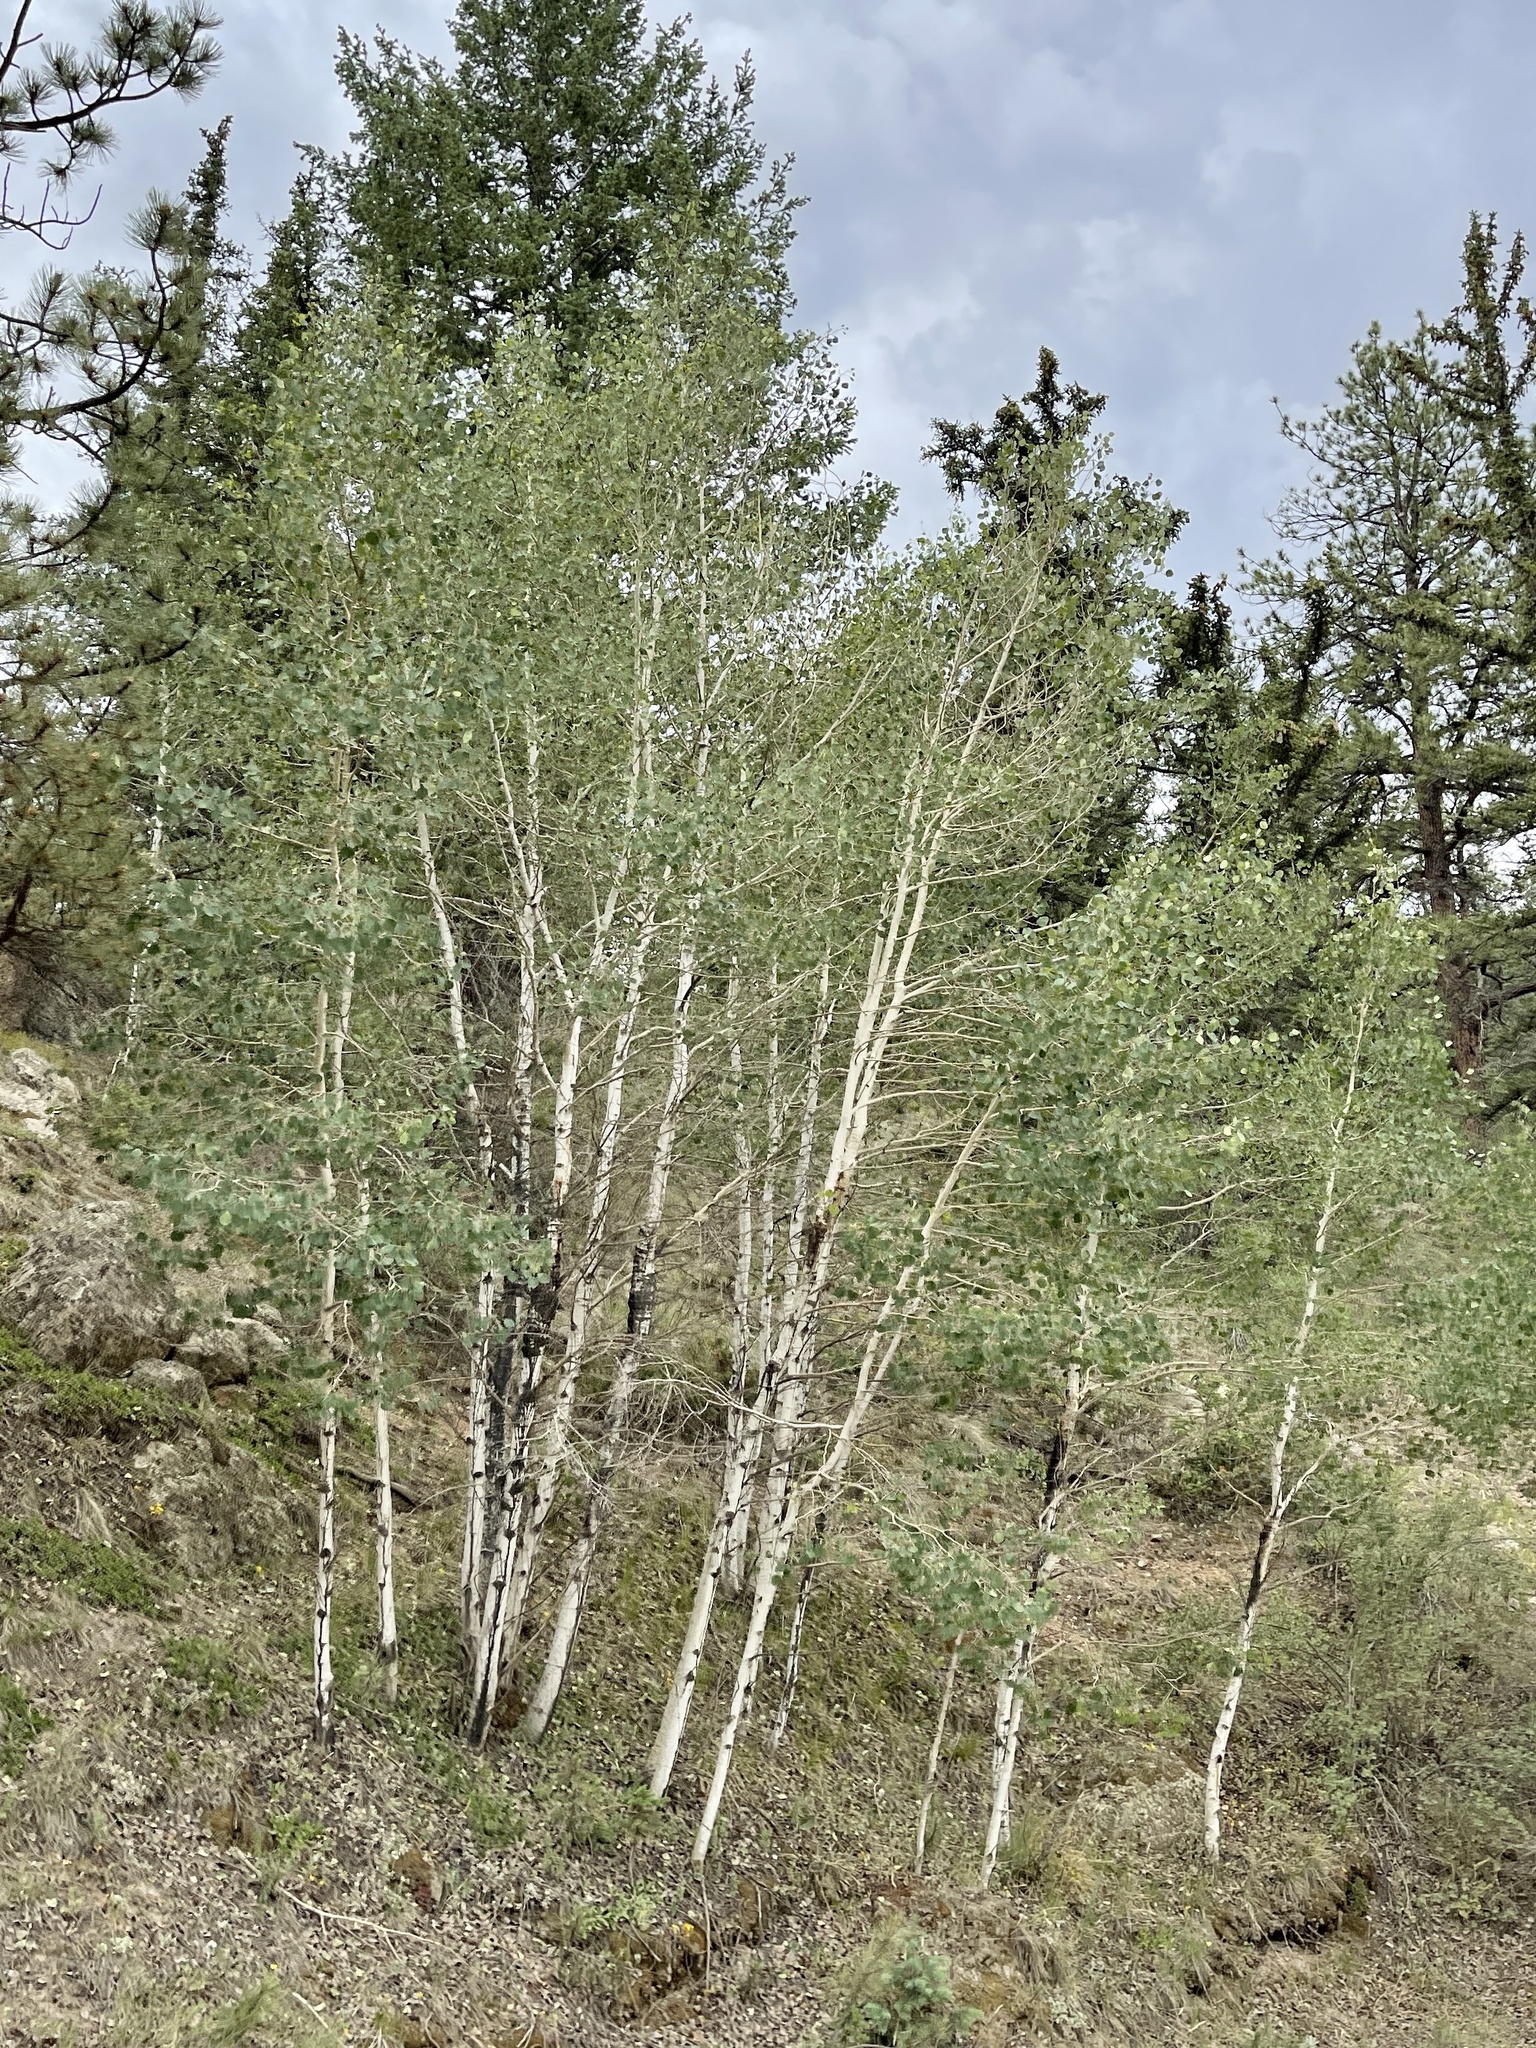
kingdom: Plantae
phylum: Tracheophyta
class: Magnoliopsida
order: Malpighiales
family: Salicaceae
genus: Populus
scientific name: Populus tremuloides
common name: Quaking aspen
